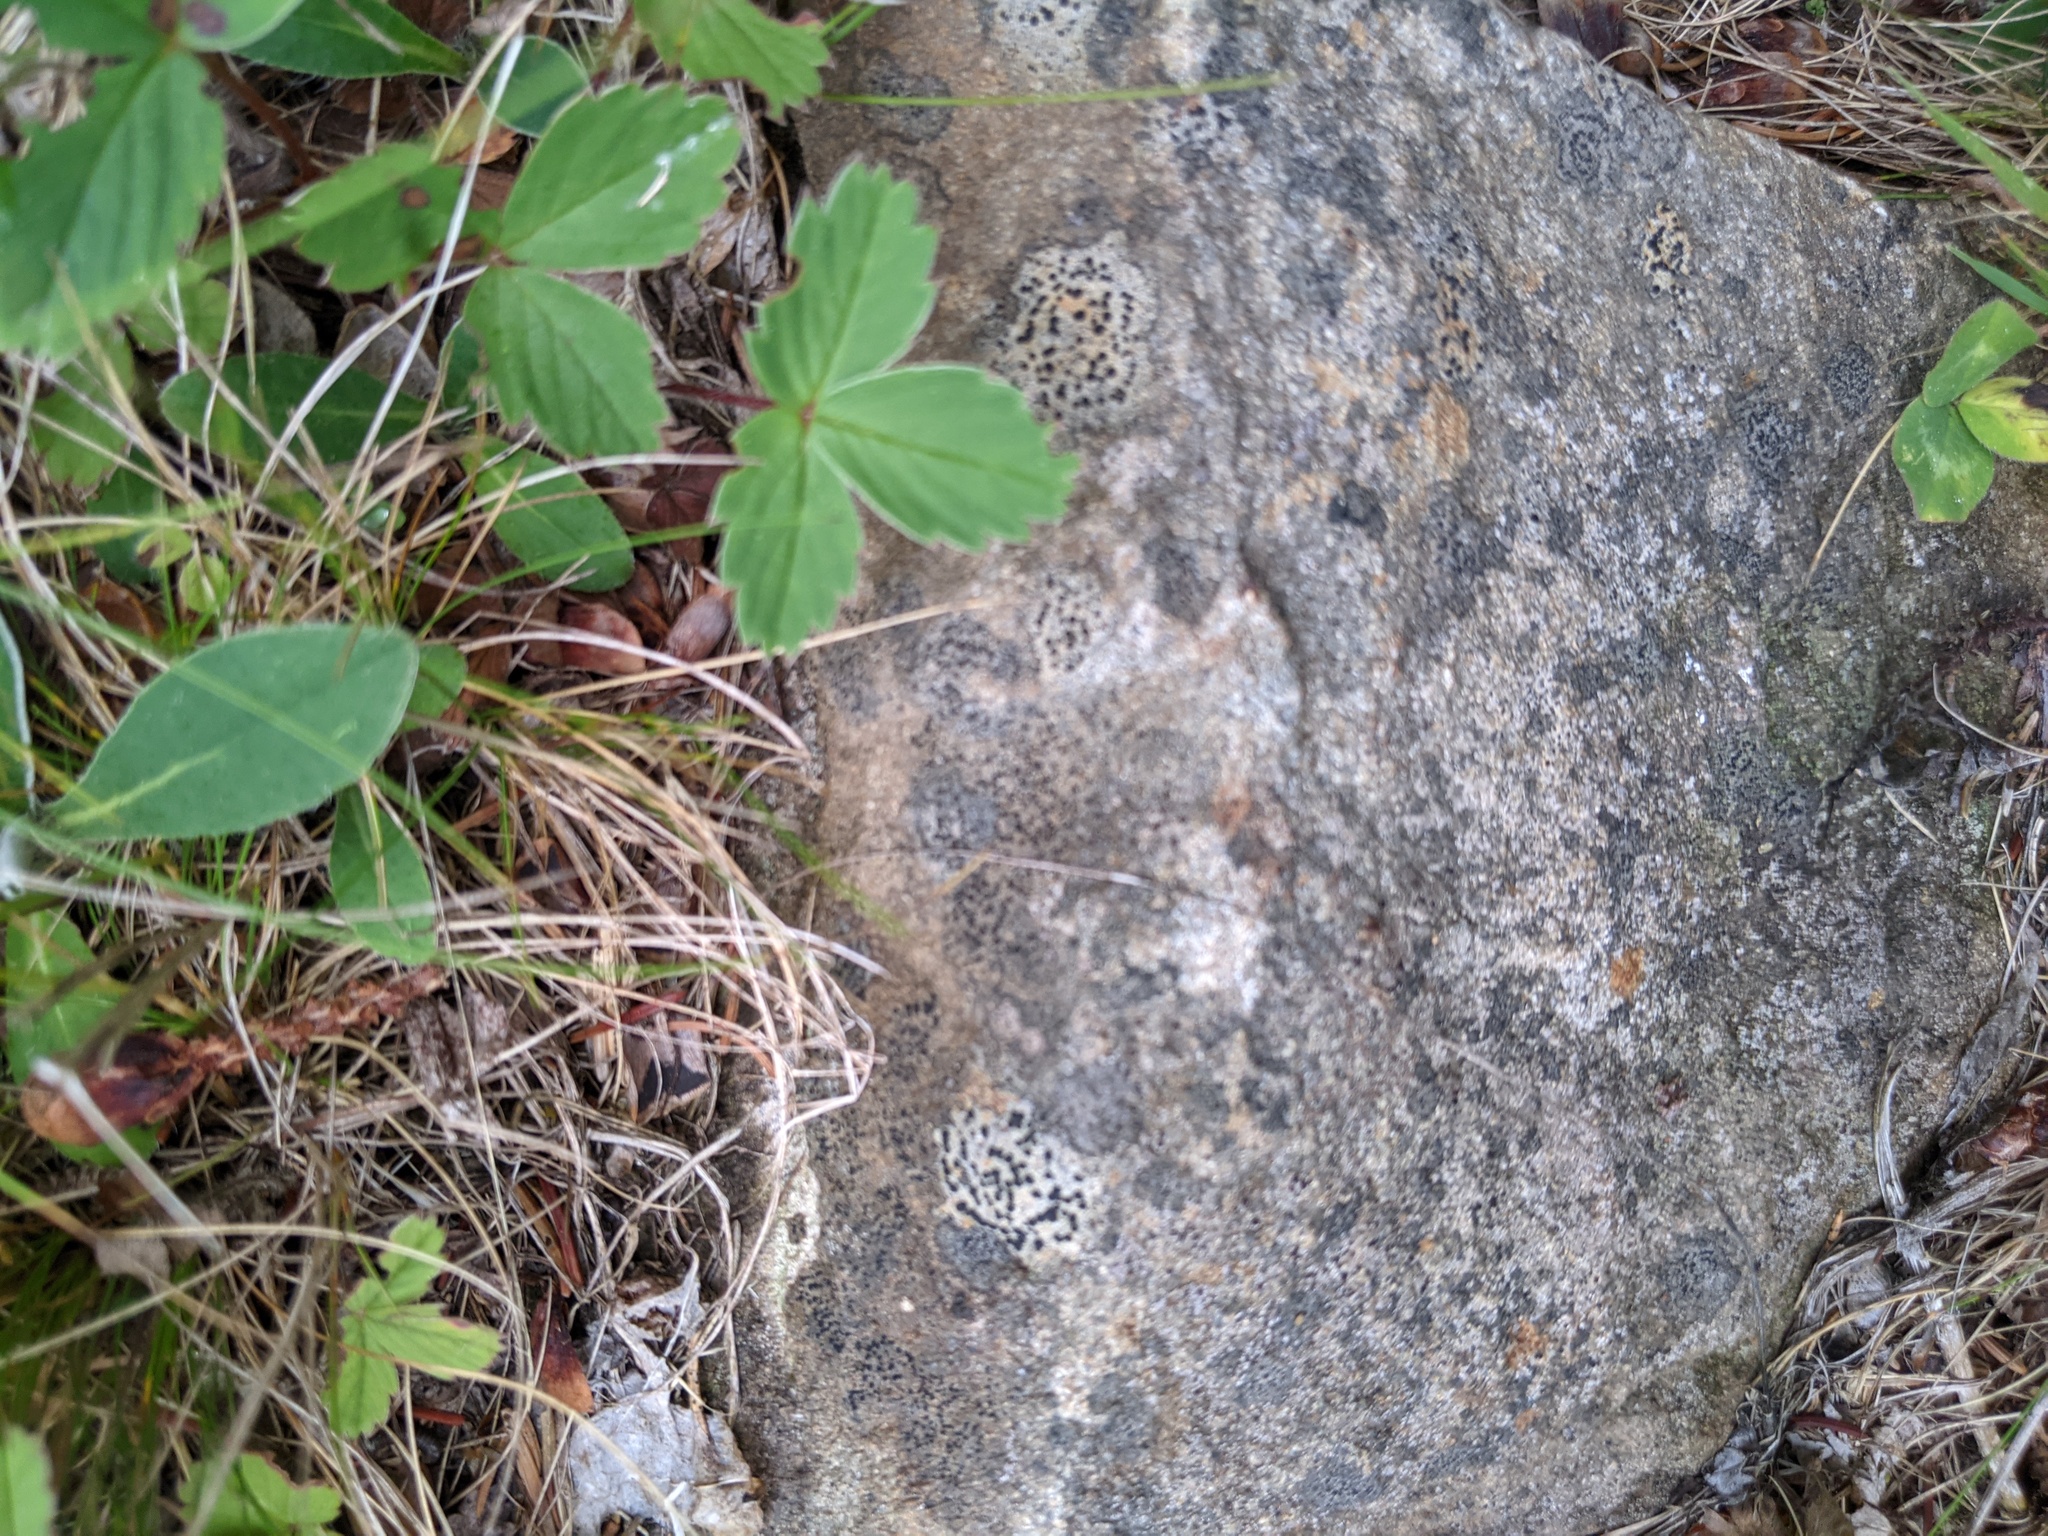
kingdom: Fungi
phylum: Ascomycota
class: Lecanoromycetes
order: Lecideales
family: Lecideaceae
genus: Porpidia
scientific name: Porpidia crustulata
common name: Concentric boulder lichen
